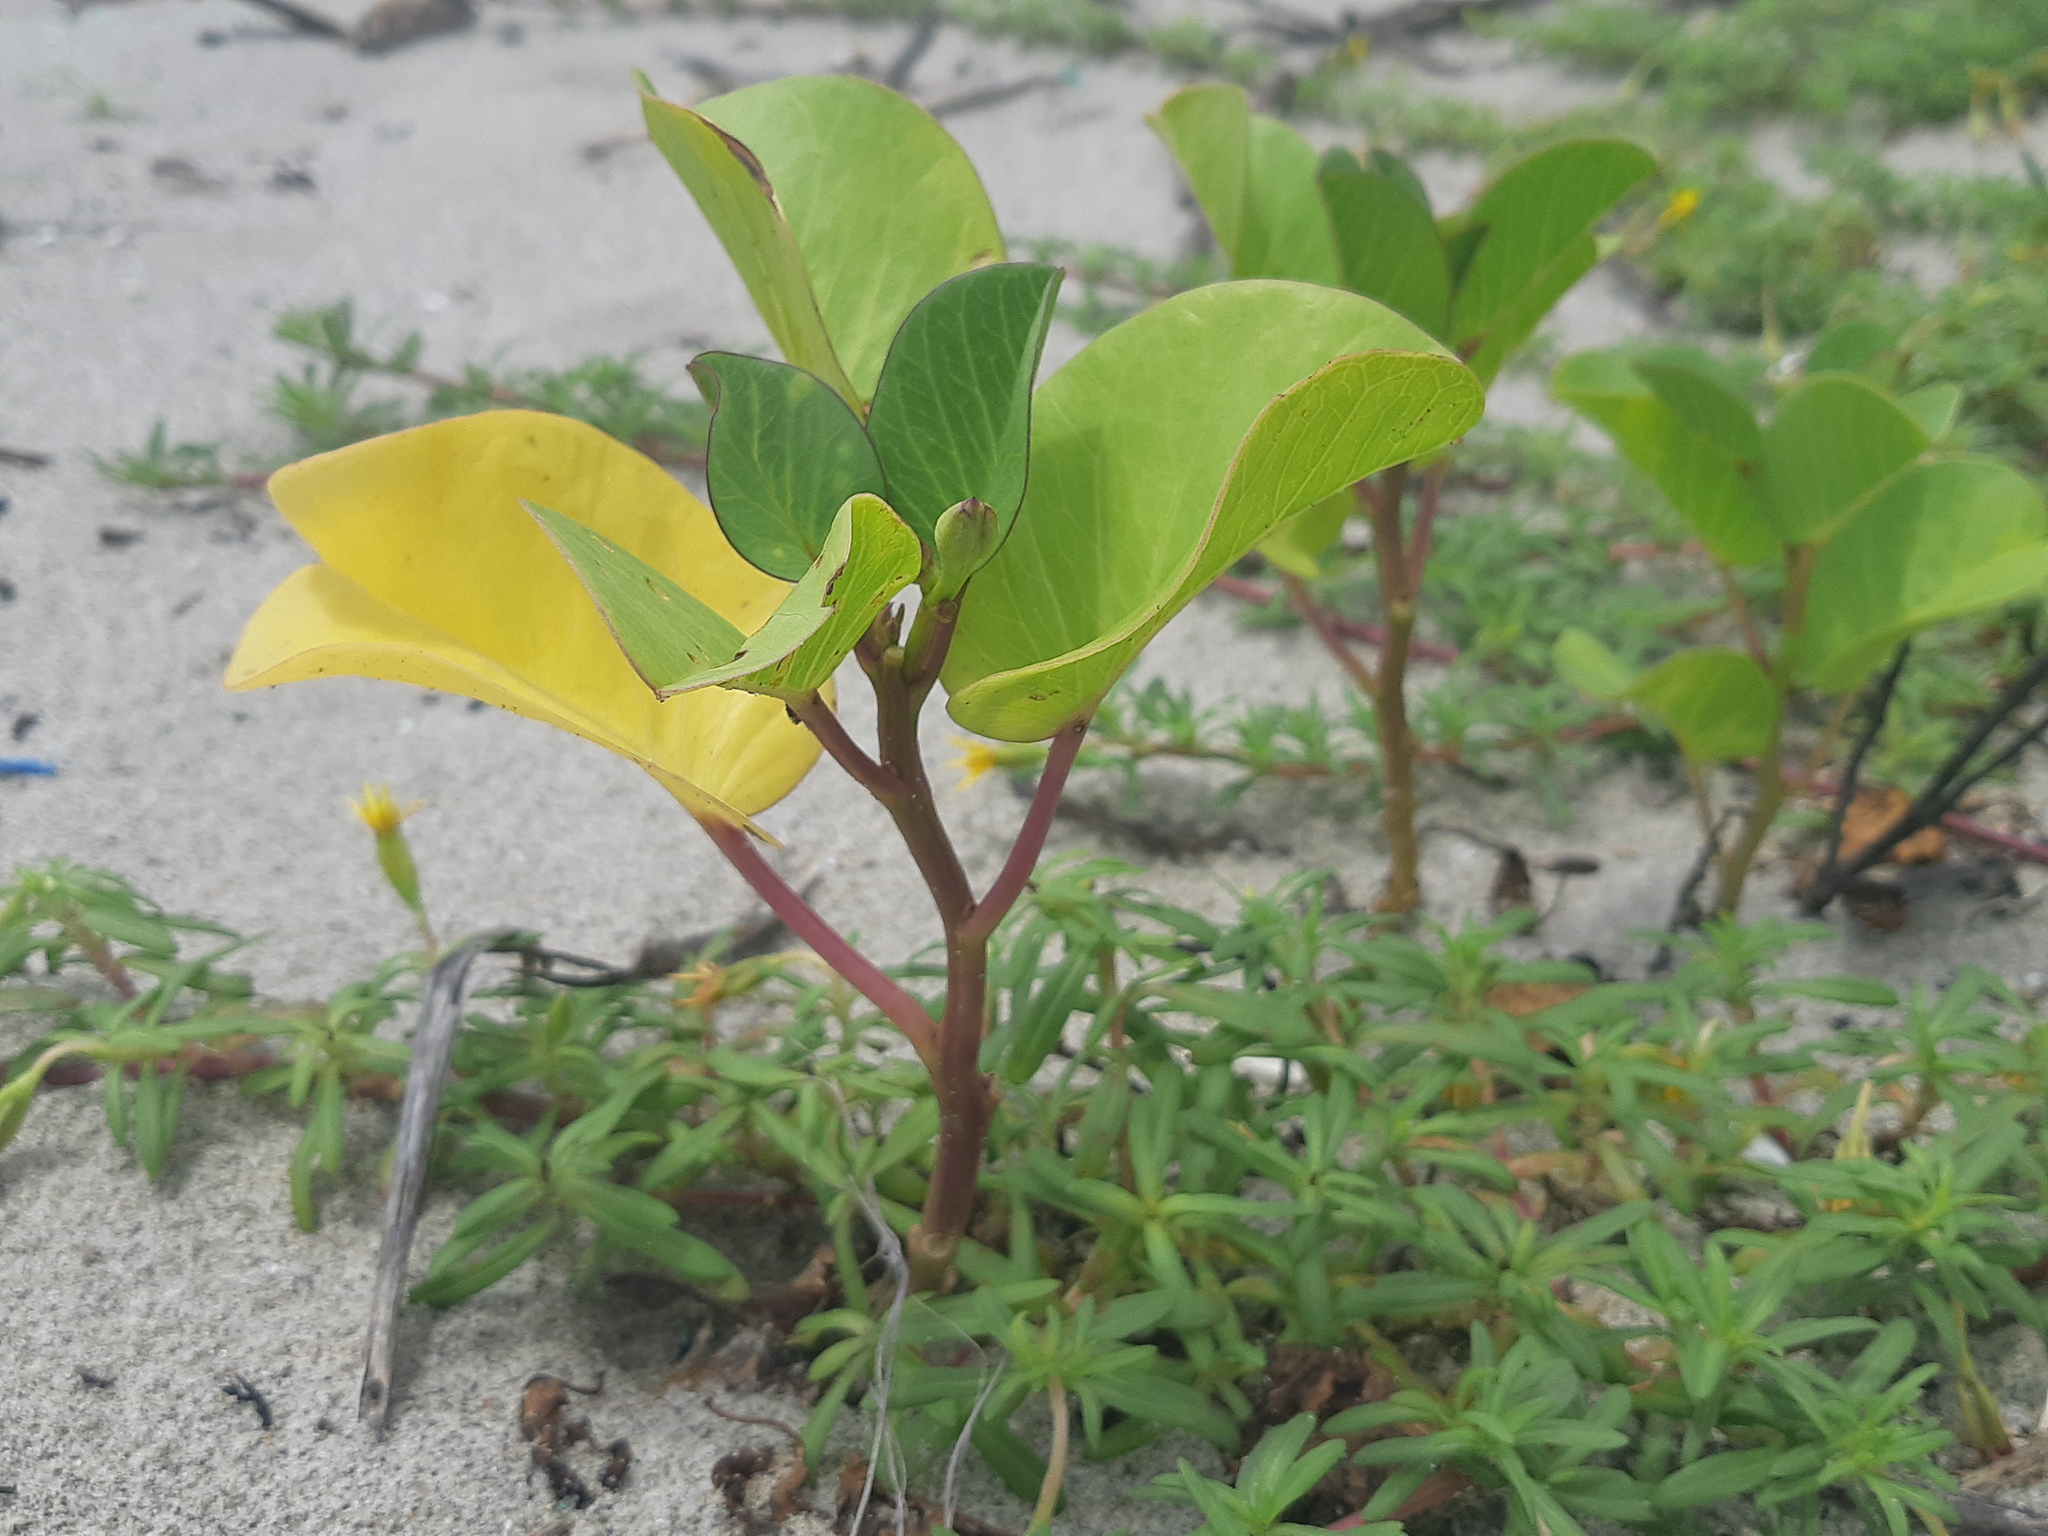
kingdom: Plantae
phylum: Tracheophyta
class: Magnoliopsida
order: Solanales
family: Convolvulaceae
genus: Ipomoea
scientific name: Ipomoea pes-caprae
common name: Beach morning glory
